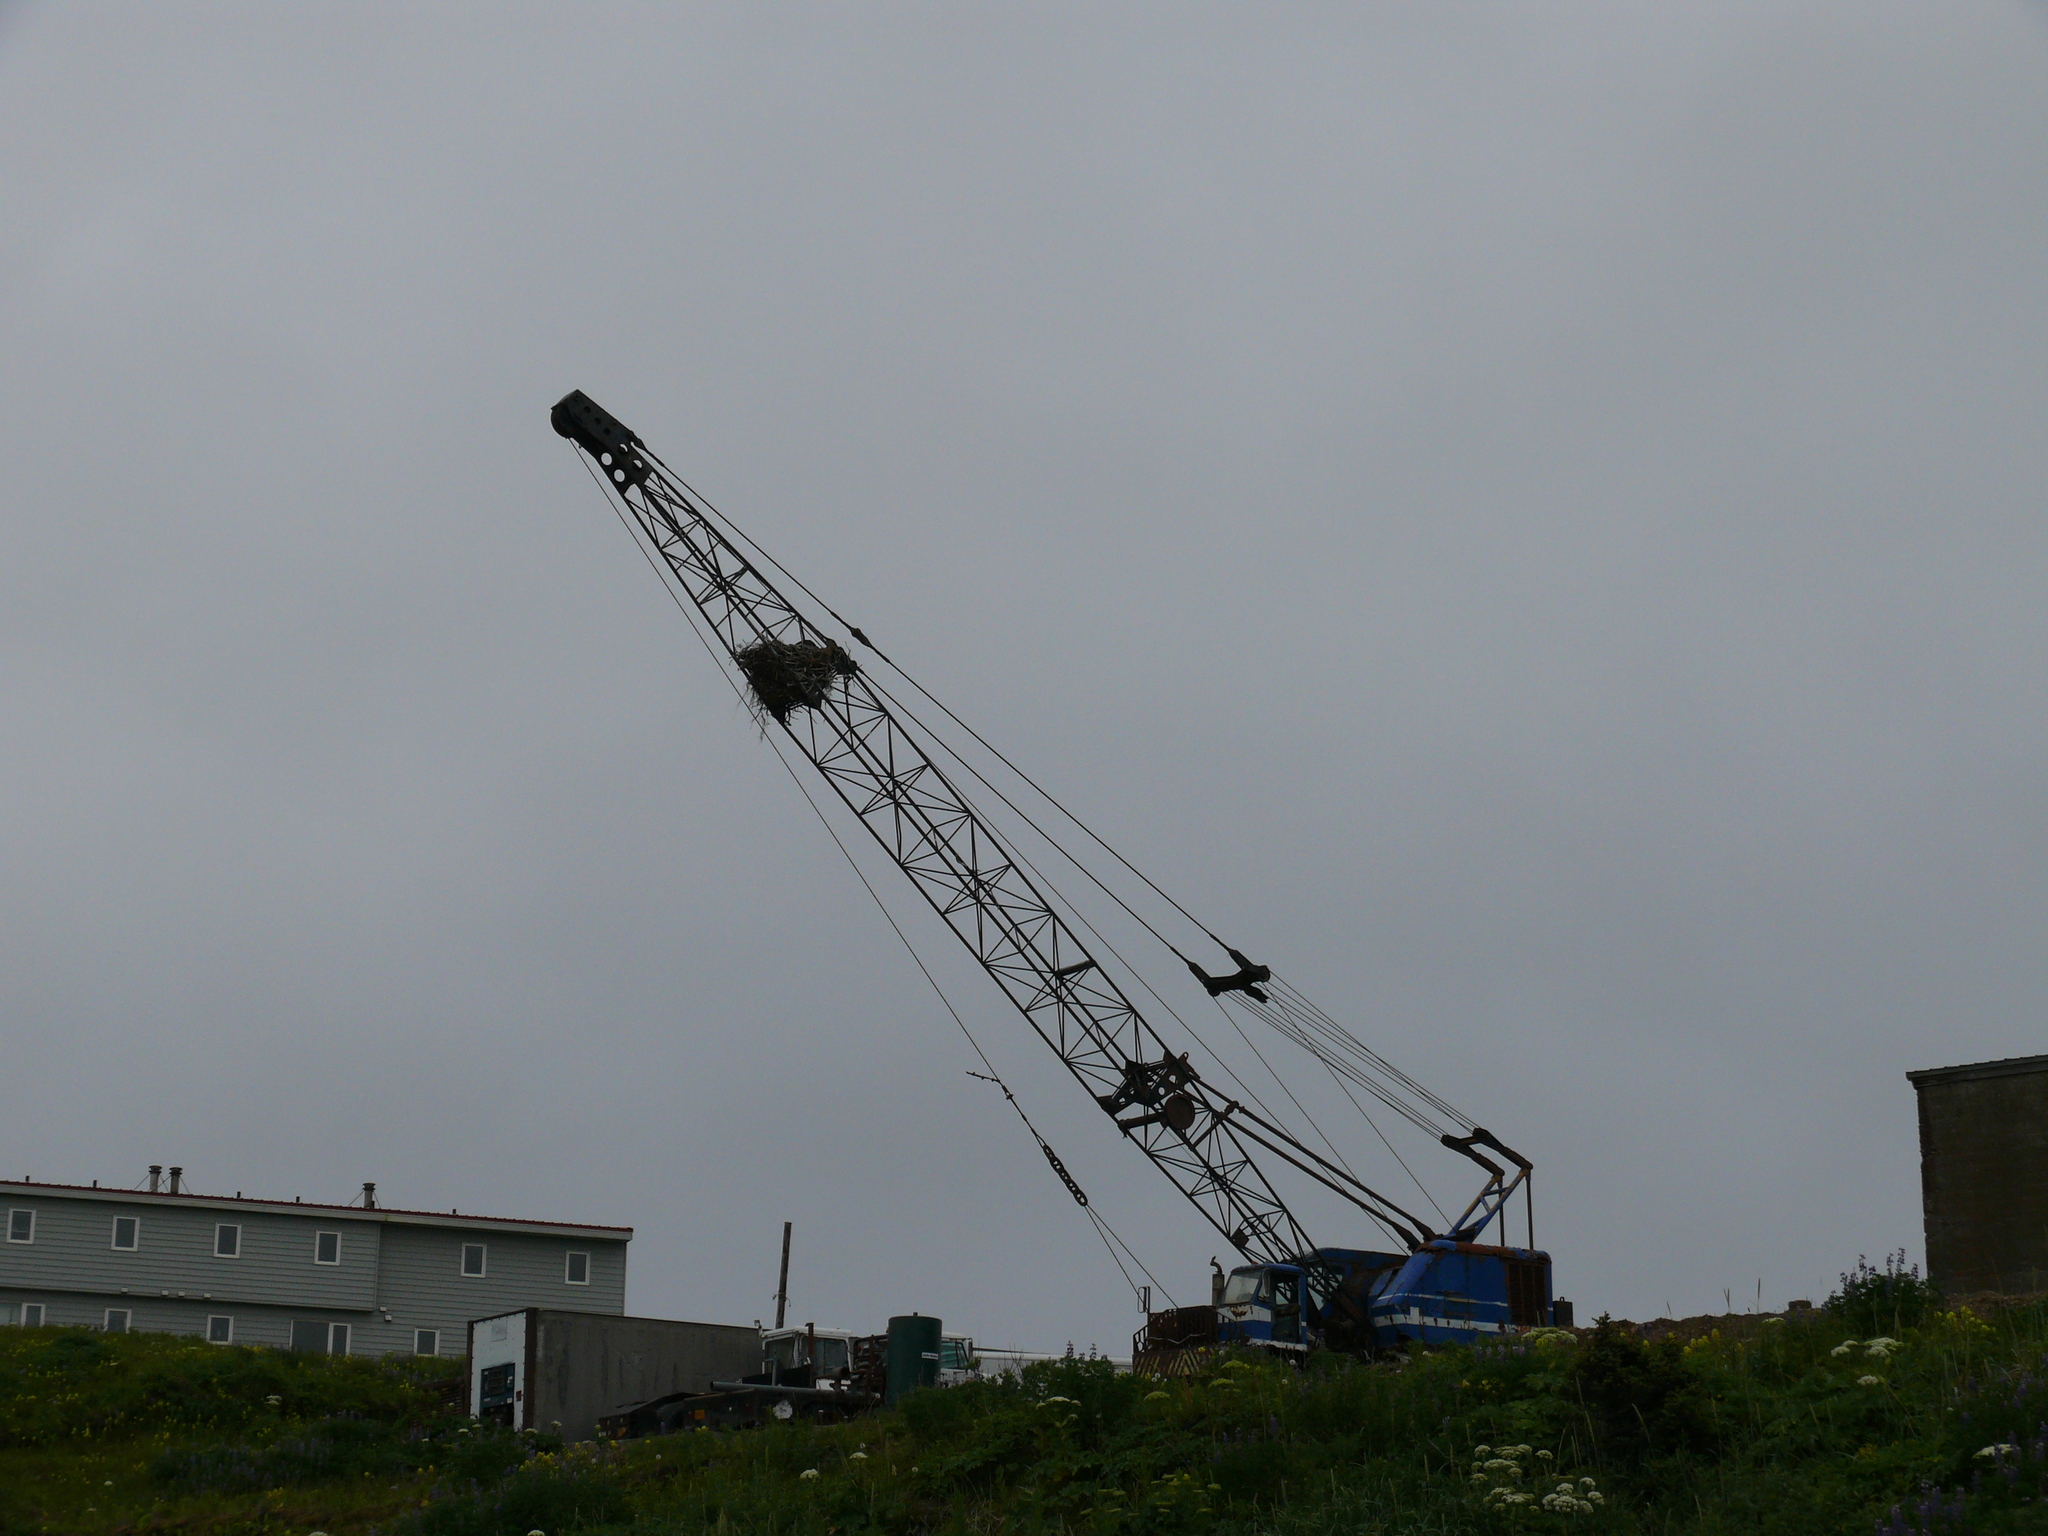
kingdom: Animalia
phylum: Chordata
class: Aves
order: Accipitriformes
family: Accipitridae
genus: Haliaeetus
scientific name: Haliaeetus leucocephalus
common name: Bald eagle
